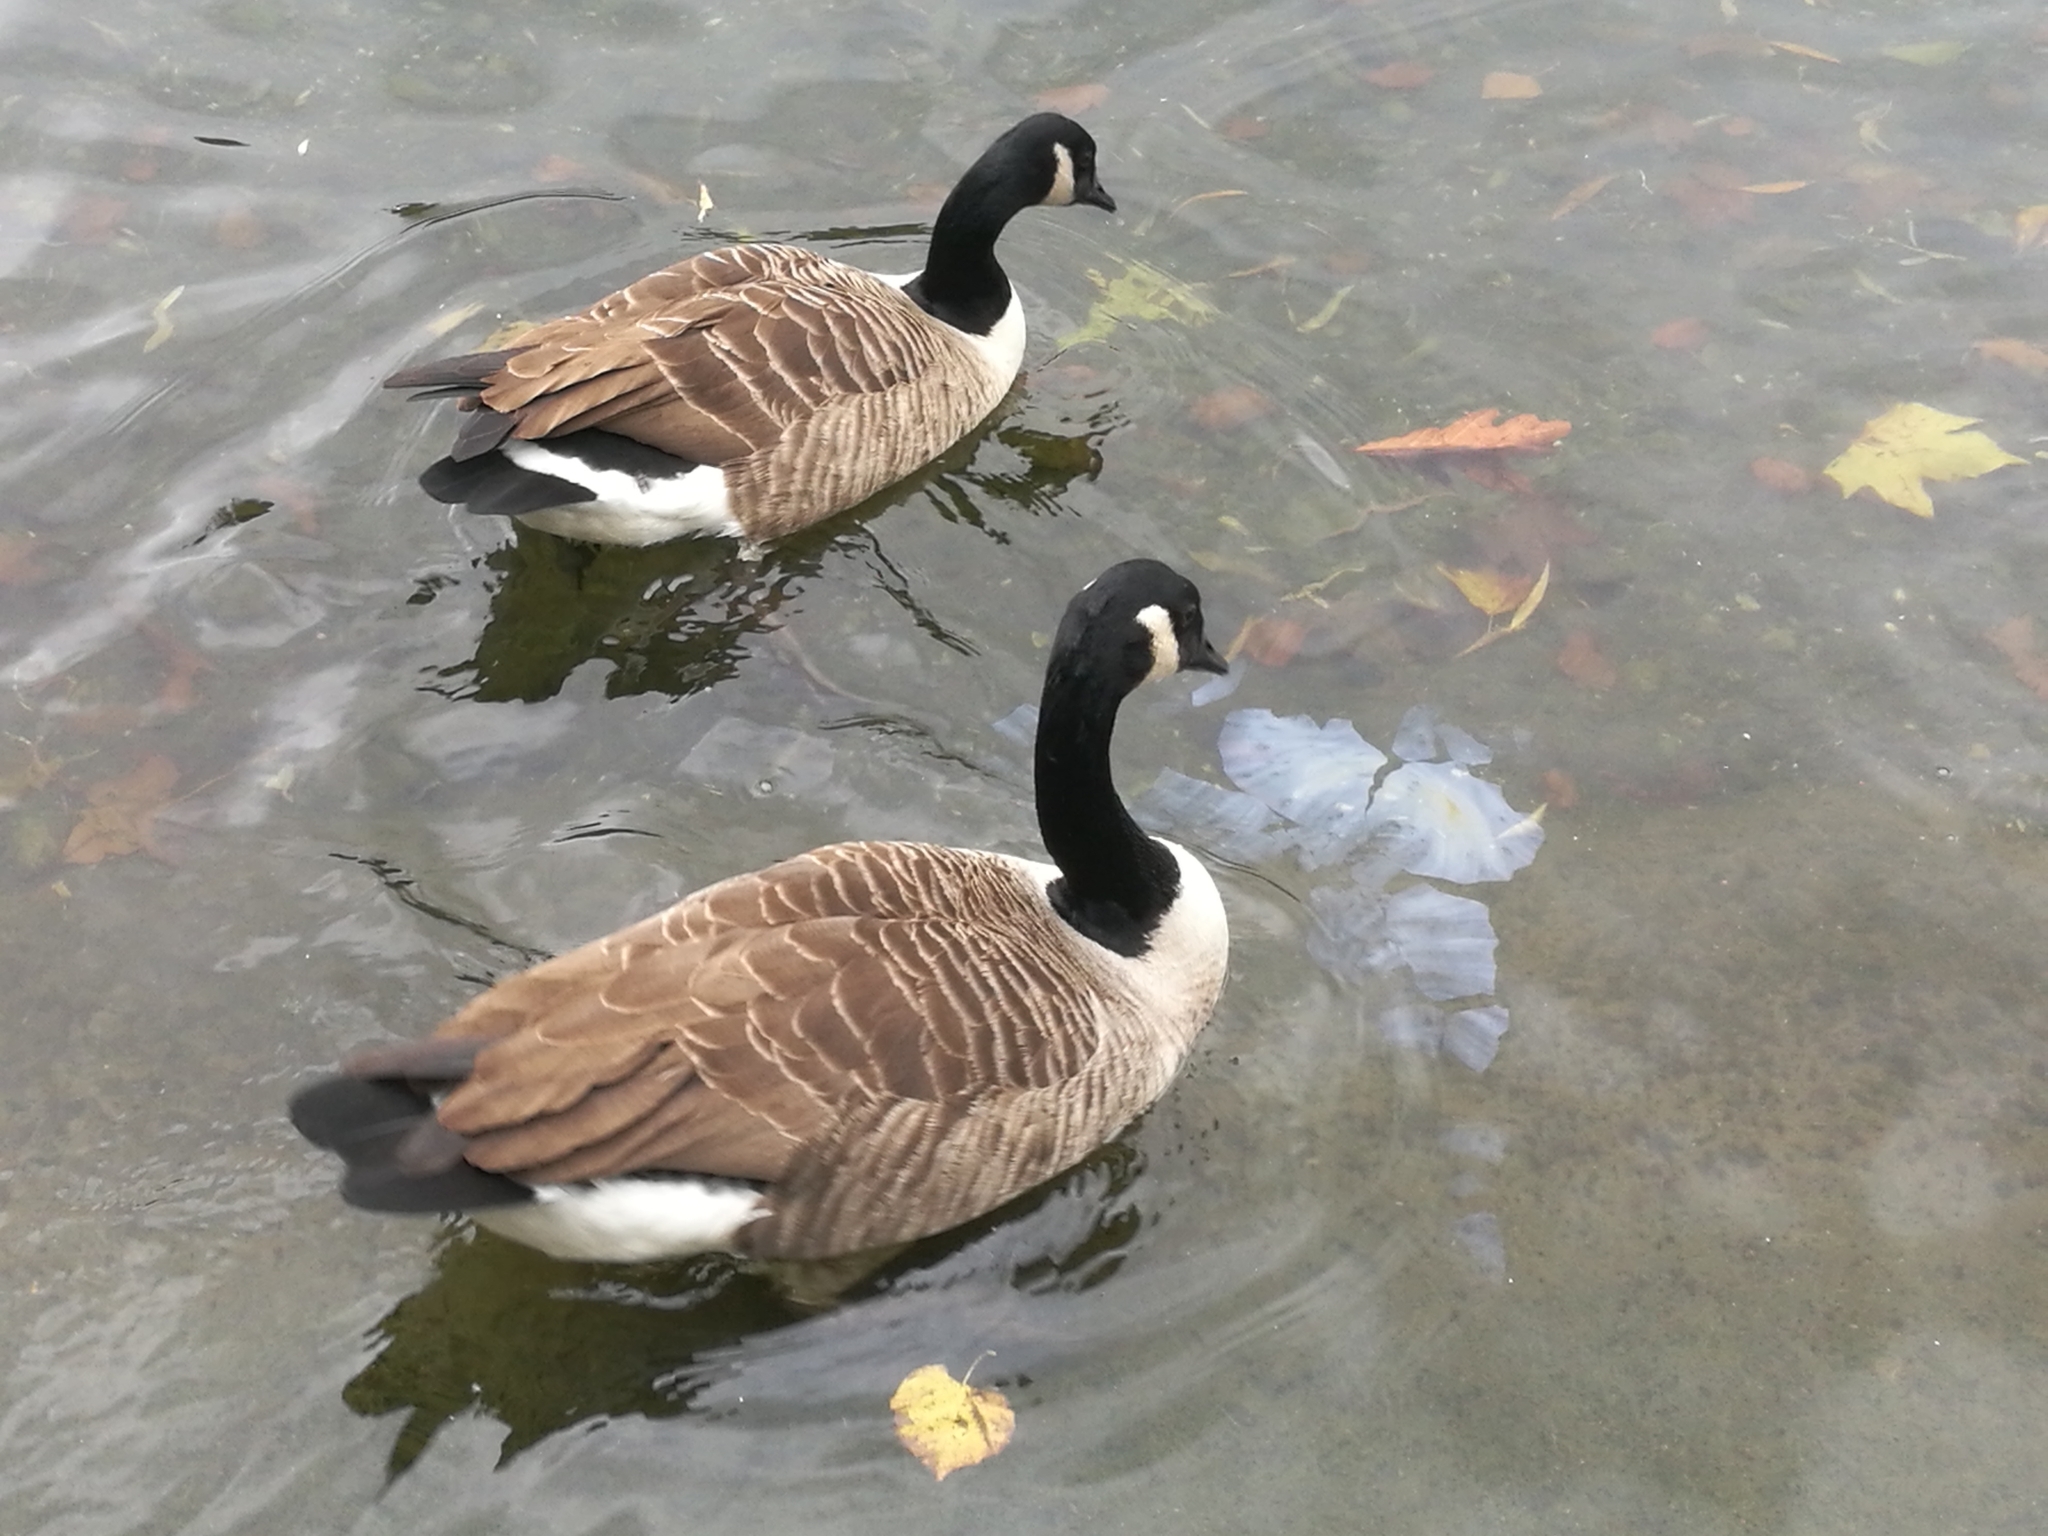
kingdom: Animalia
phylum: Chordata
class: Aves
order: Anseriformes
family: Anatidae
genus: Branta
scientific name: Branta canadensis
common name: Canada goose
